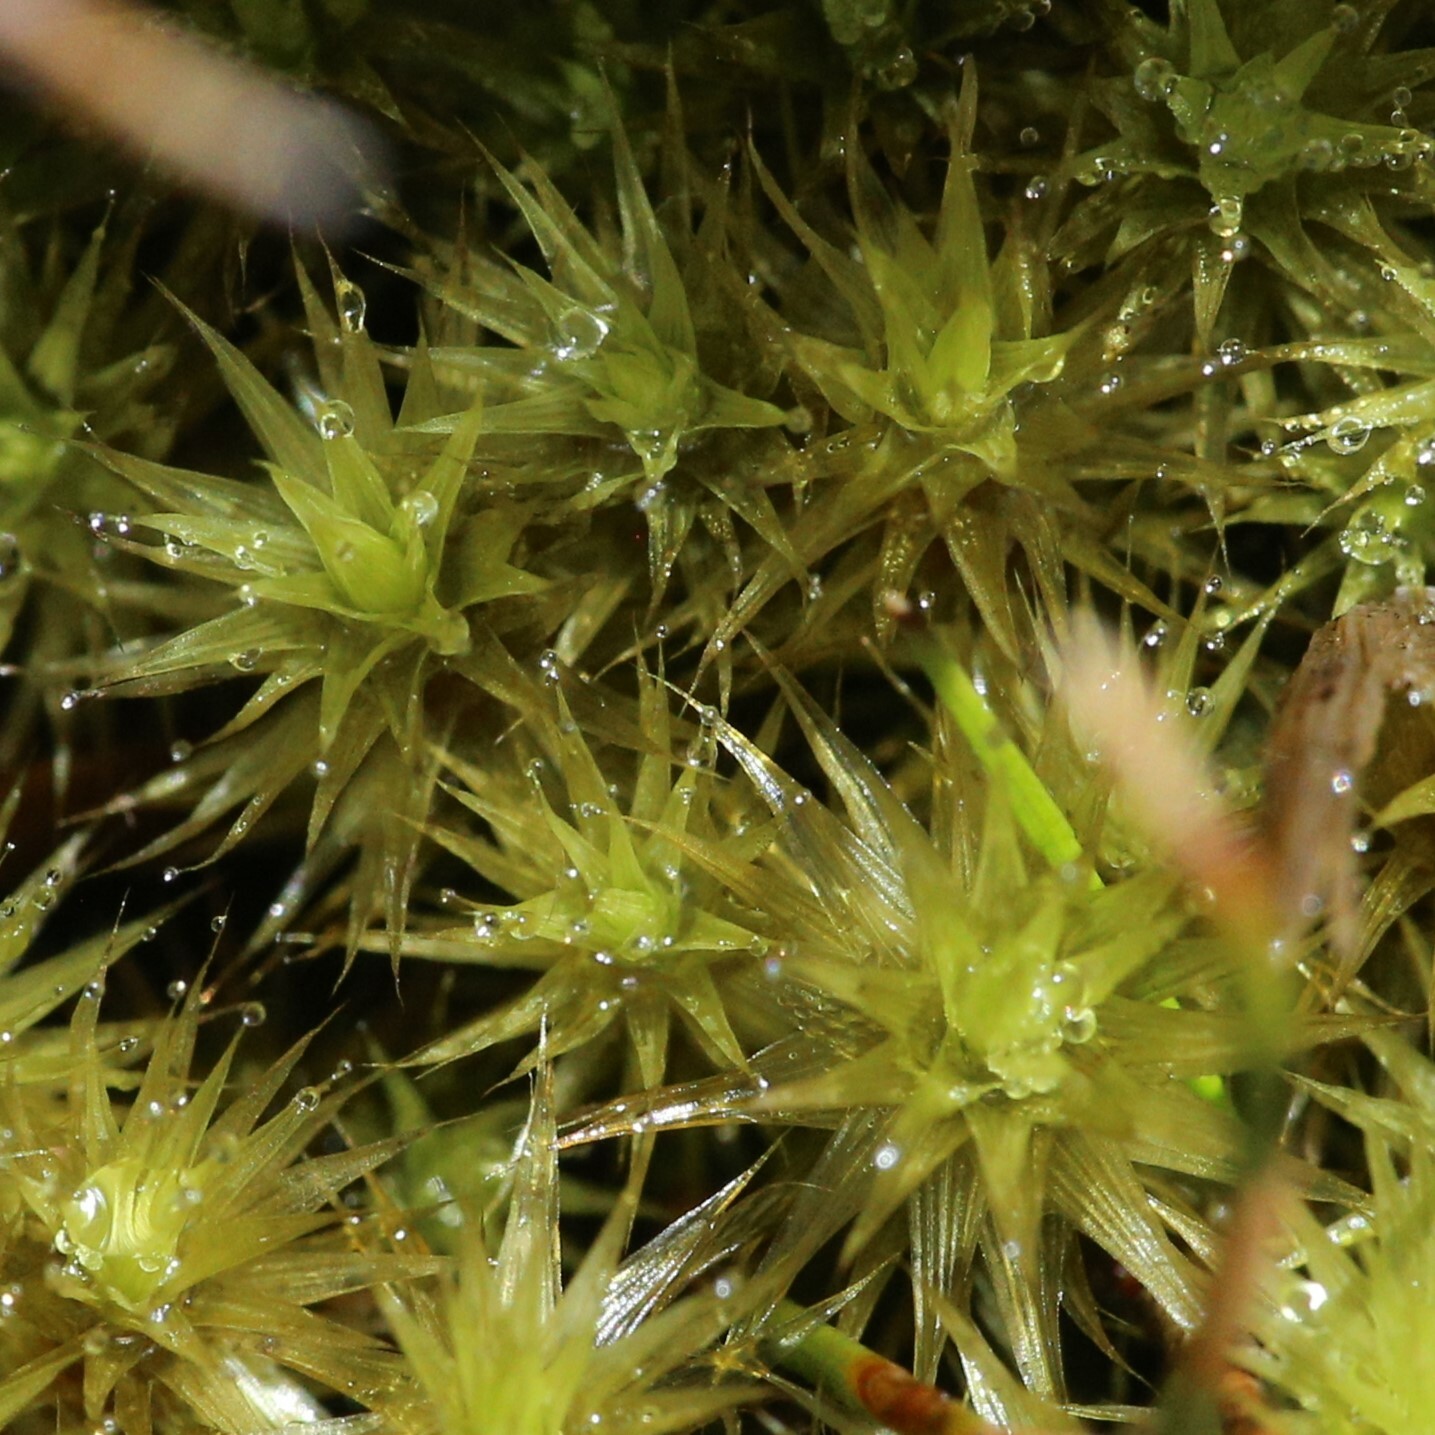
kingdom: Plantae
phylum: Bryophyta
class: Bryopsida
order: Bartramiales
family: Bartramiaceae
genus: Breutelia
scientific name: Breutelia pendula
